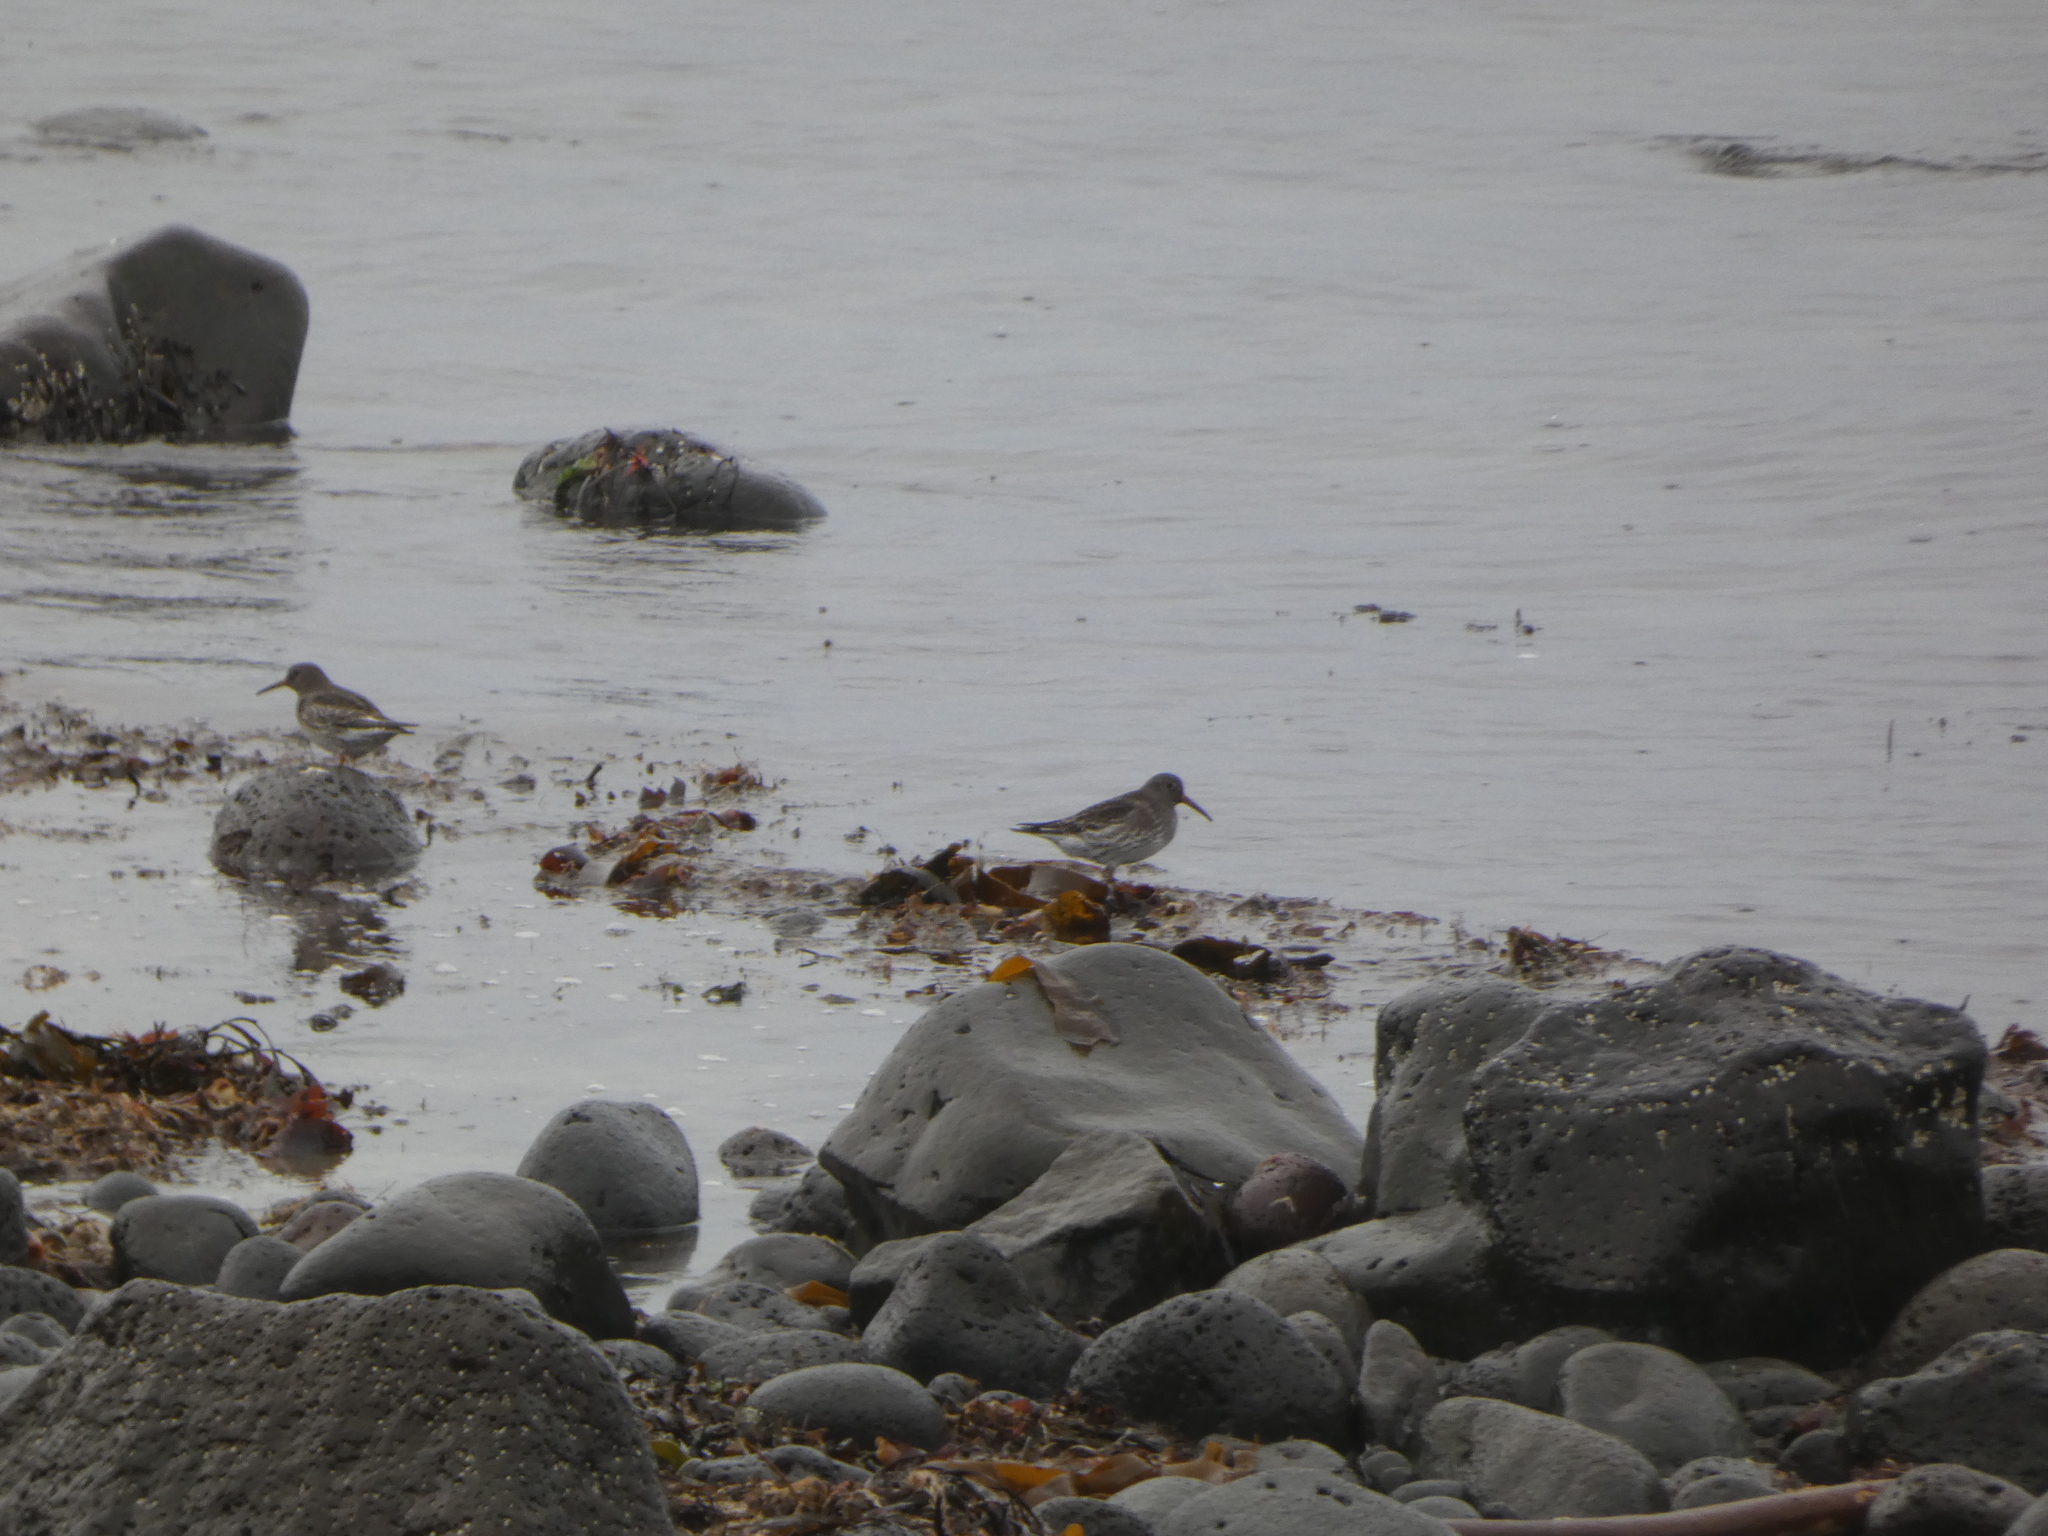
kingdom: Animalia
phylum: Chordata
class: Aves
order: Charadriiformes
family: Scolopacidae
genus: Calidris
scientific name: Calidris maritima
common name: Purple sandpiper
